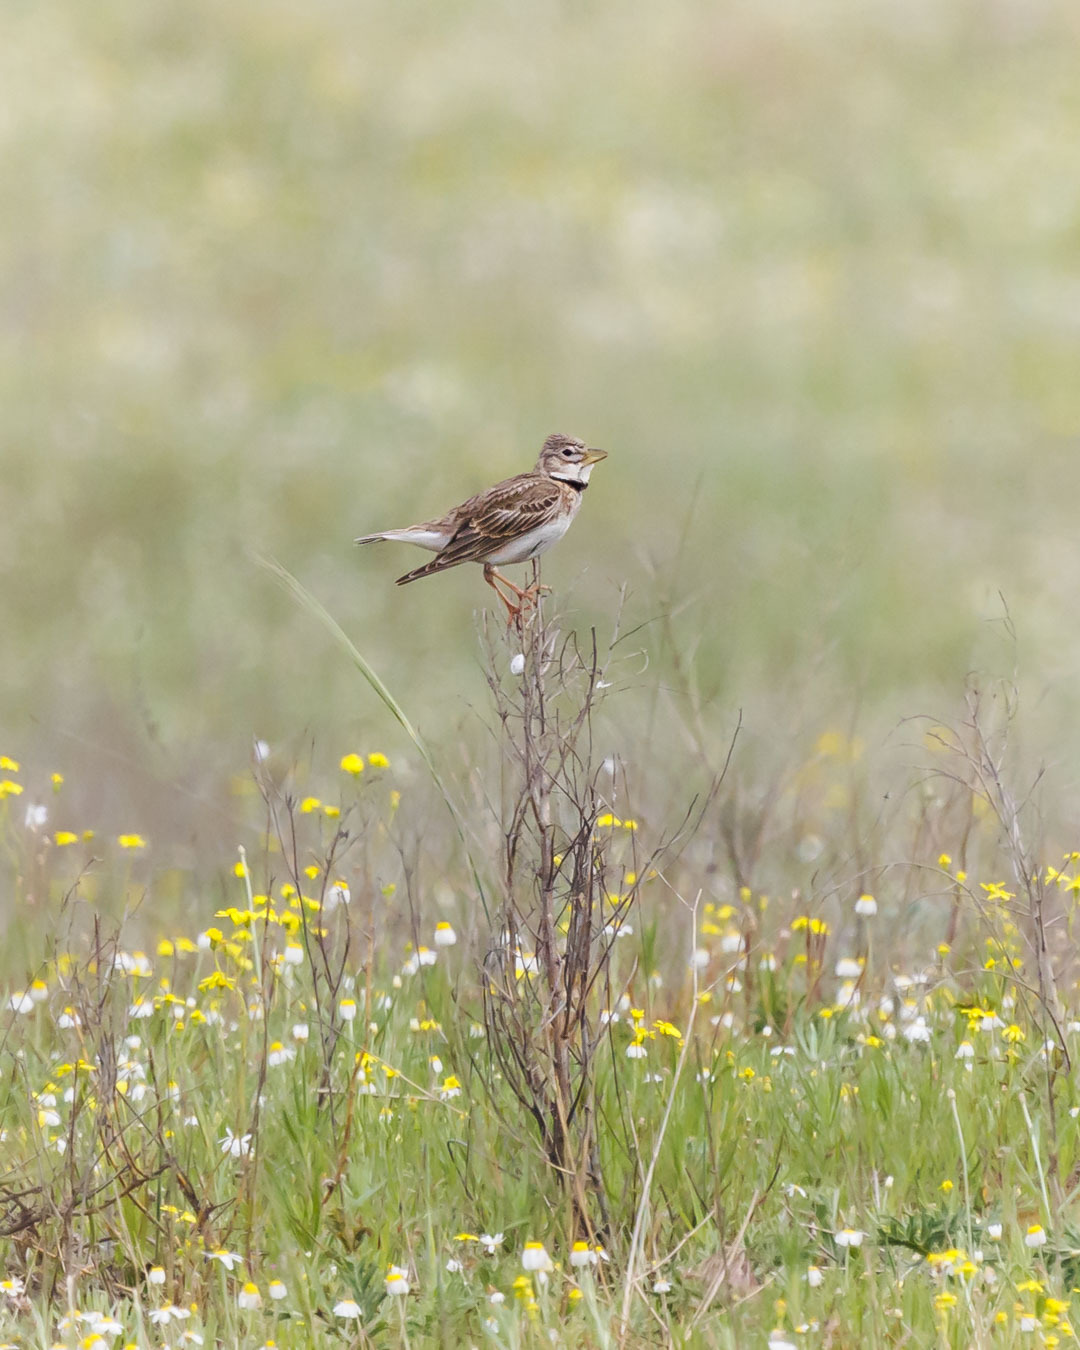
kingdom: Animalia
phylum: Chordata
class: Aves
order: Passeriformes
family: Alaudidae
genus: Melanocorypha
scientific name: Melanocorypha calandra
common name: Calandra lark
